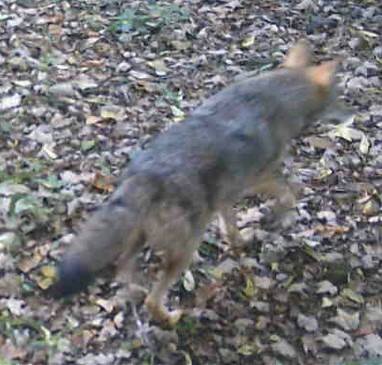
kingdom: Animalia
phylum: Chordata
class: Mammalia
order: Carnivora
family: Canidae
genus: Canis
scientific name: Canis latrans
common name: Coyote
